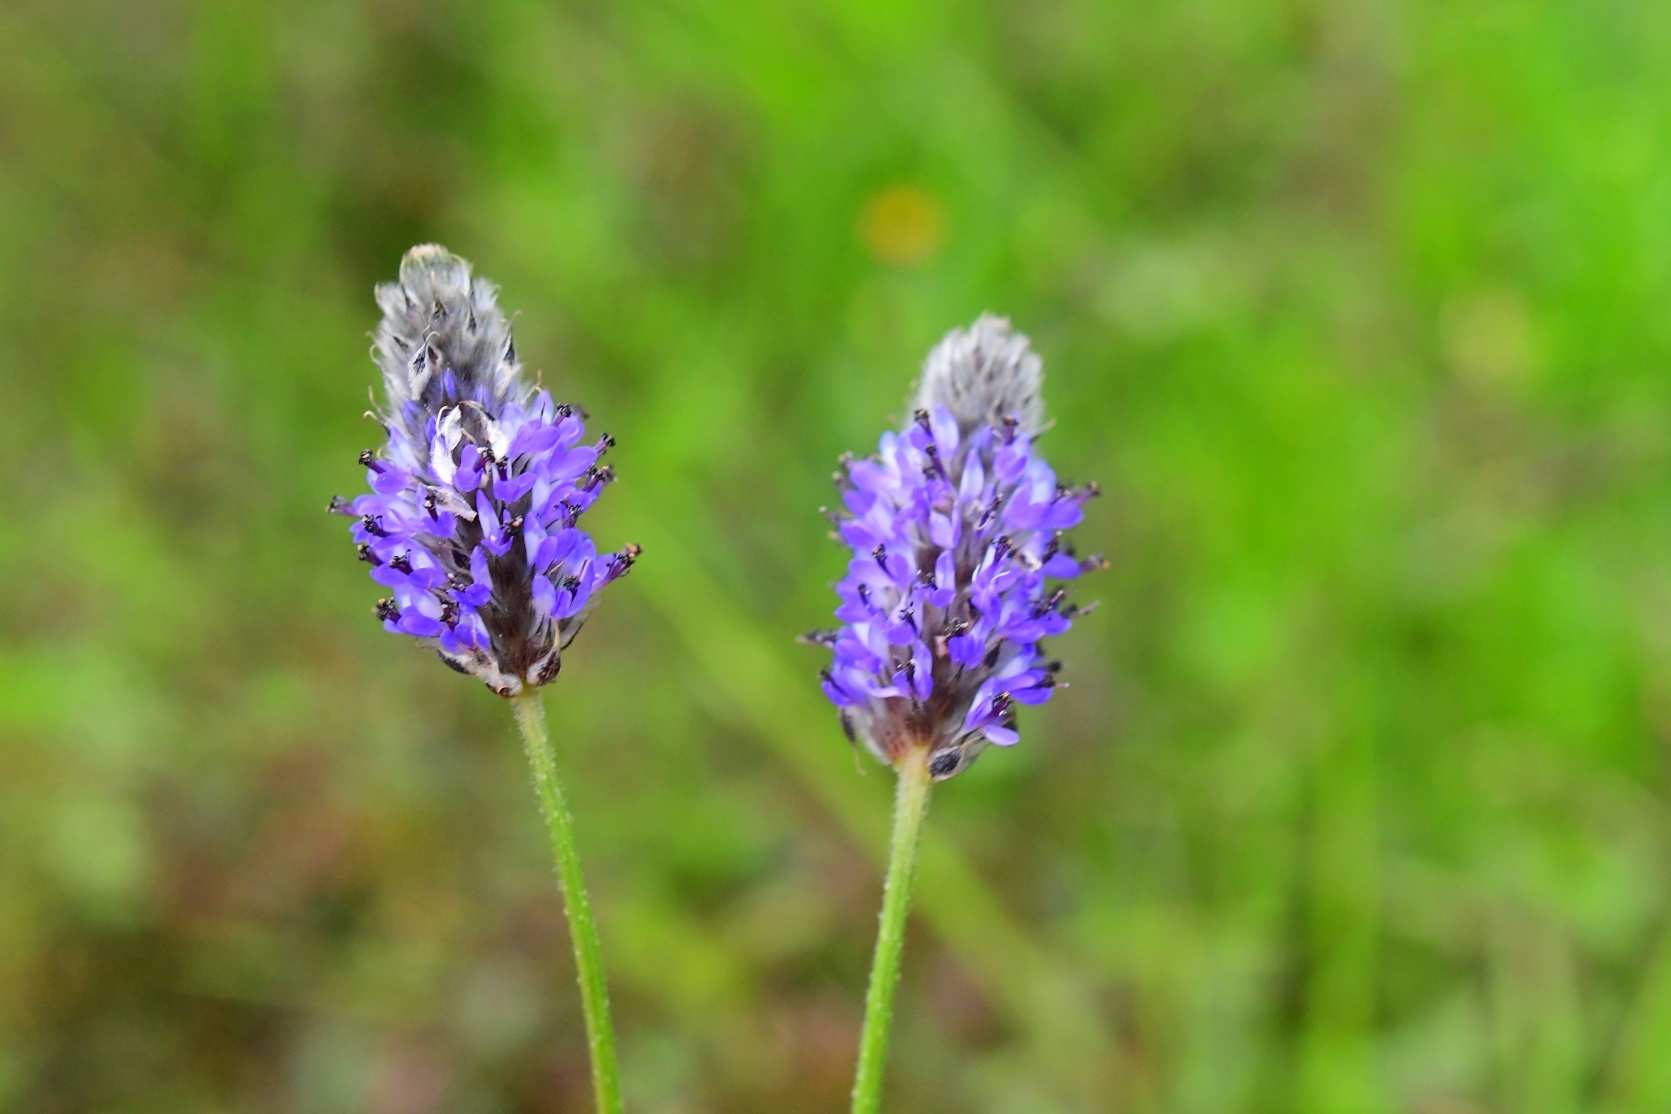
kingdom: Plantae
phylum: Tracheophyta
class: Magnoliopsida
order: Fabales
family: Fabaceae
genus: Dalea
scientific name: Dalea leporina
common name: Foxtail dalea
